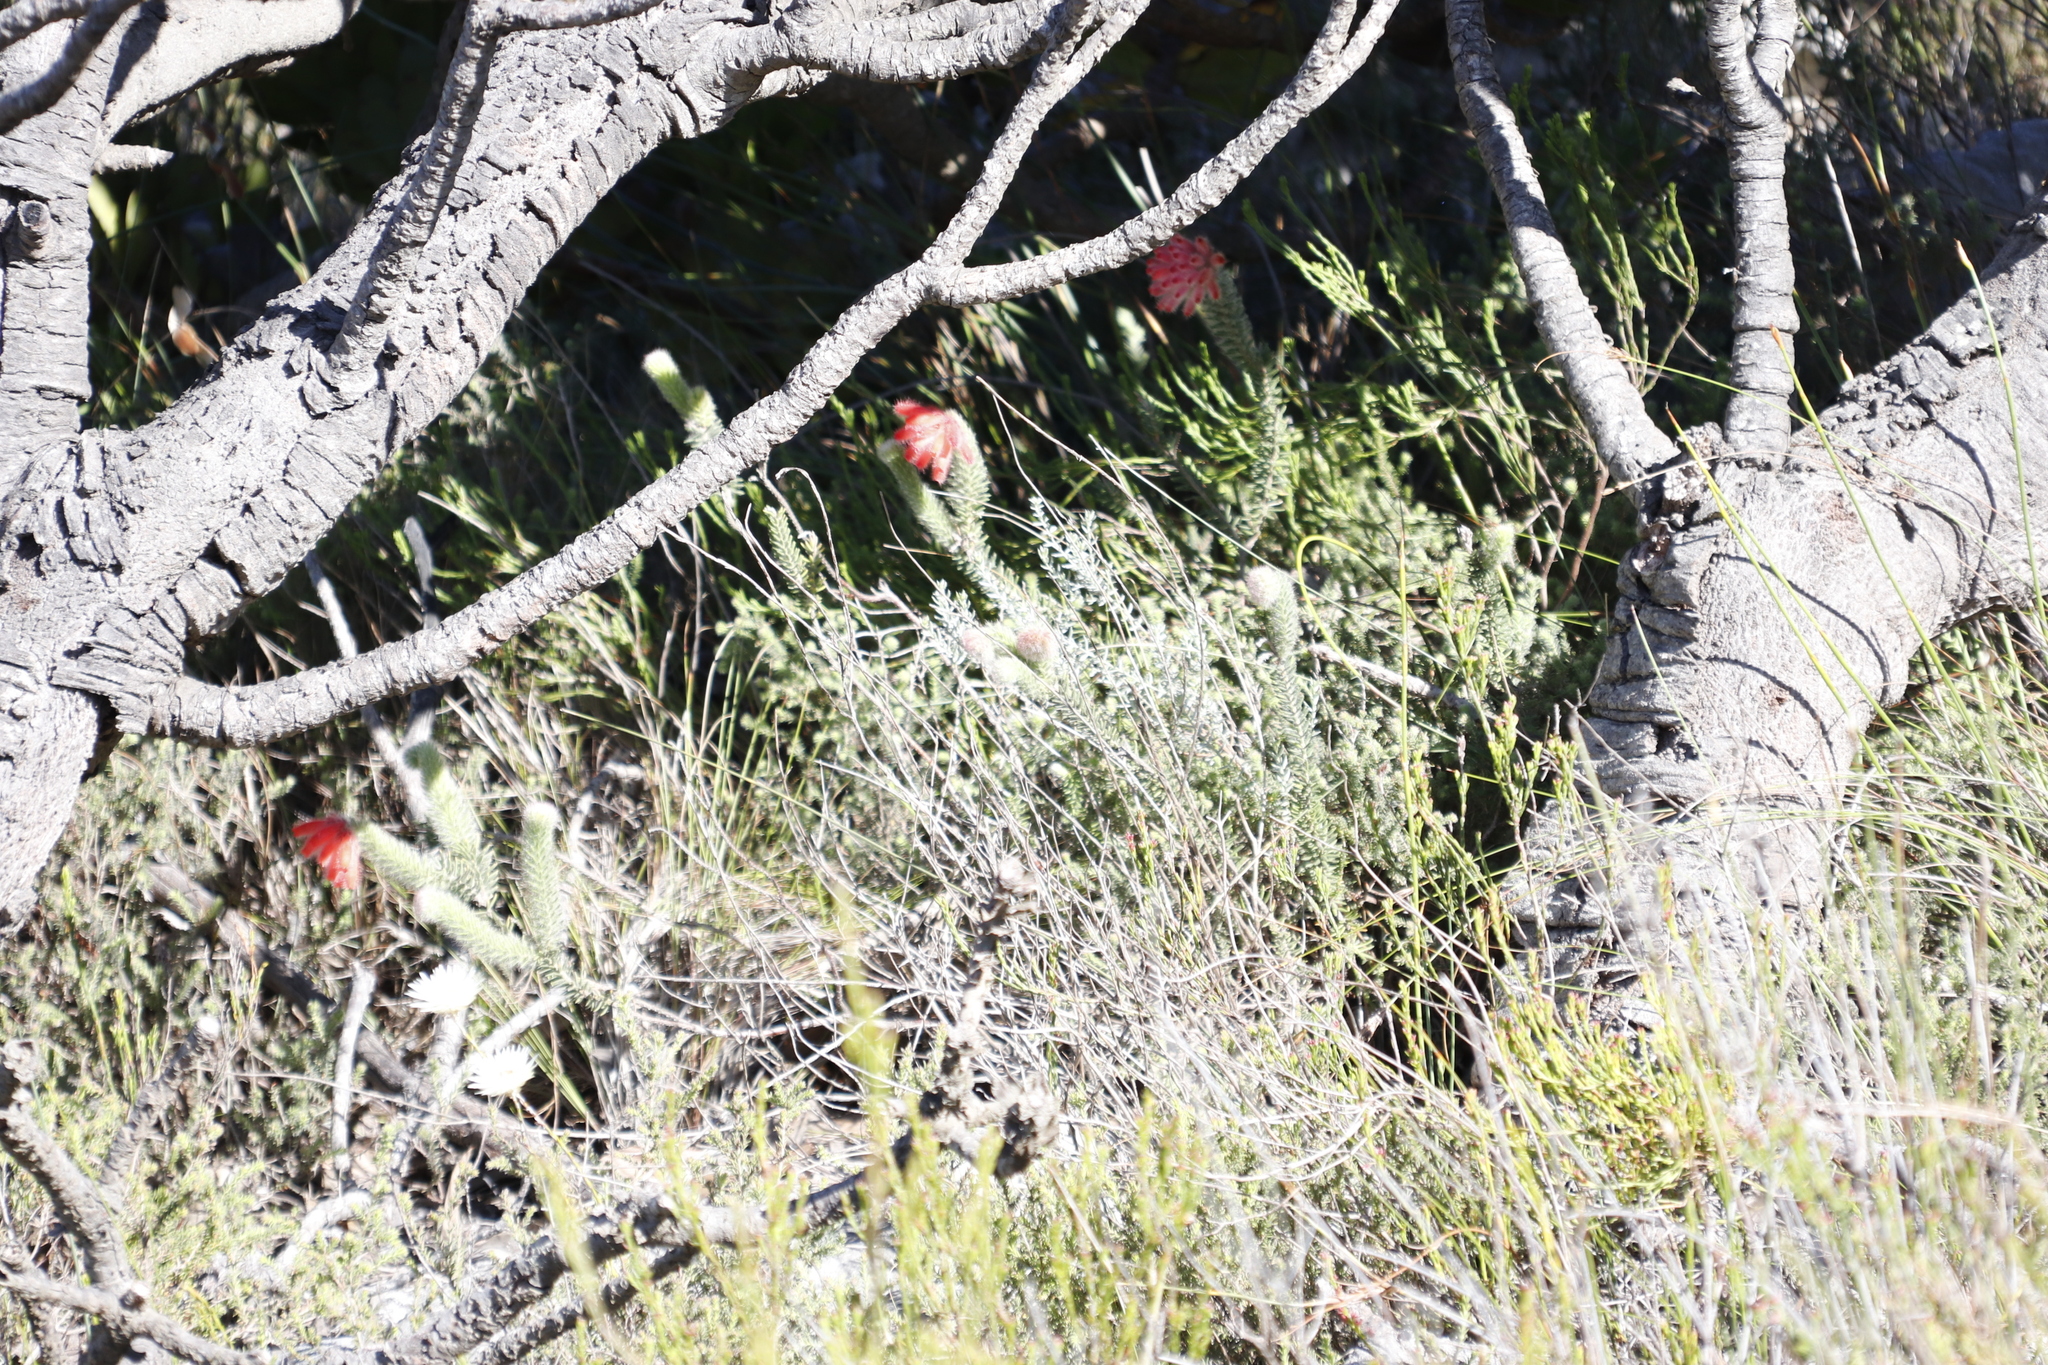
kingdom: Plantae
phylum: Tracheophyta
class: Magnoliopsida
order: Ericales
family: Ericaceae
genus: Erica
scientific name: Erica cerinthoides
